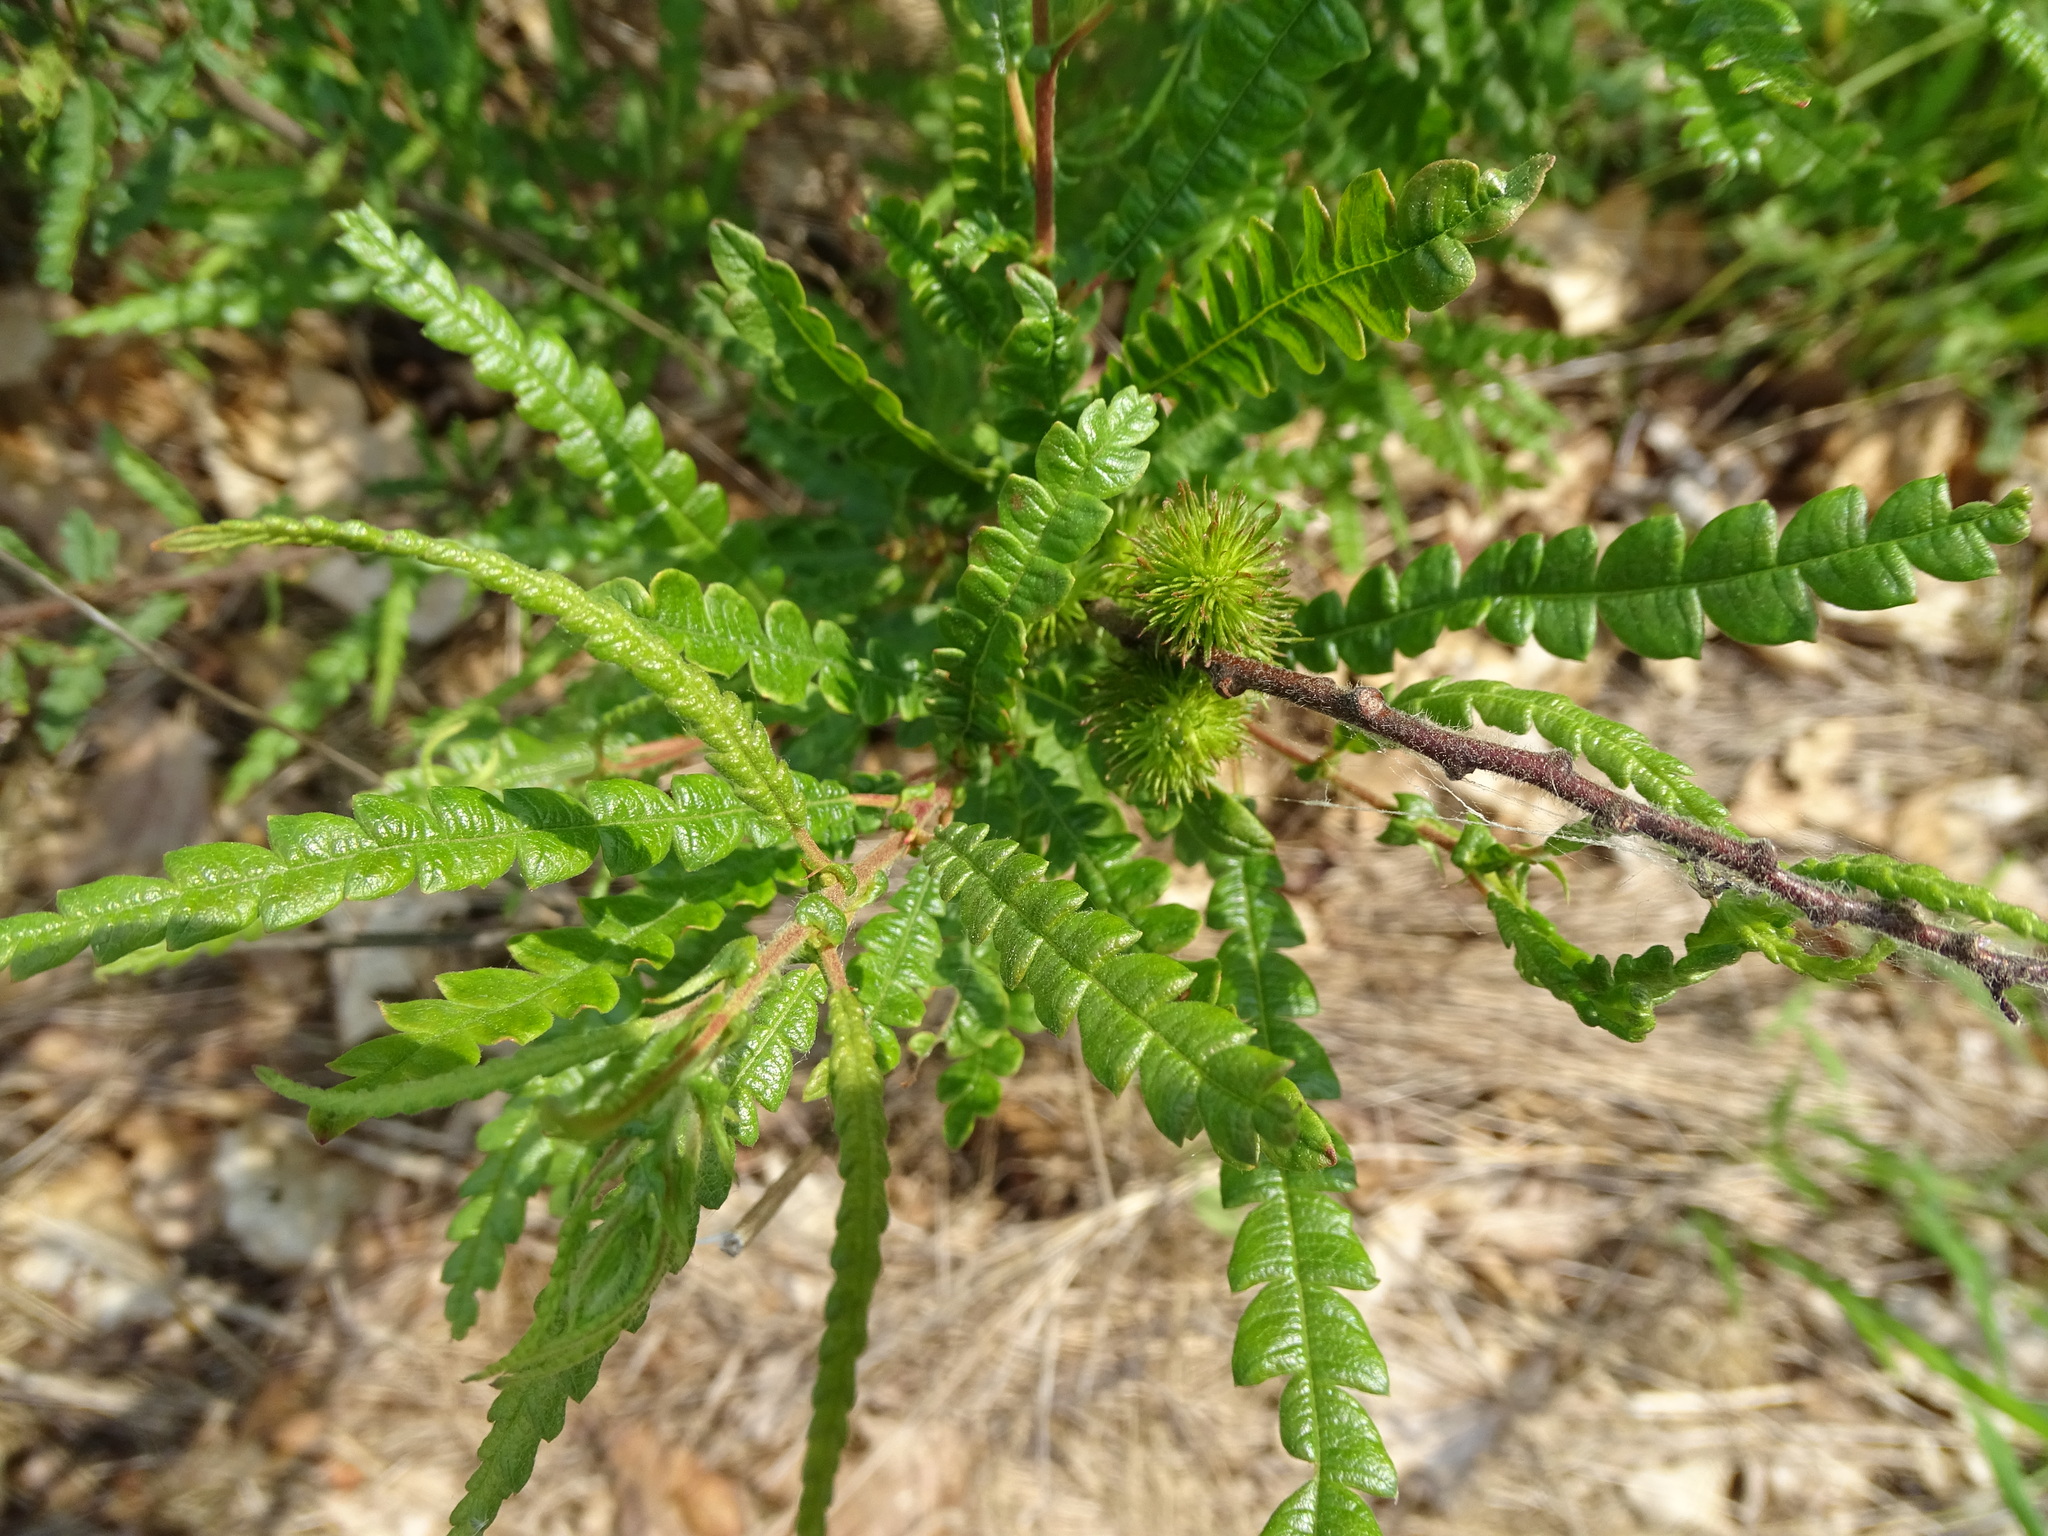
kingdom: Plantae
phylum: Tracheophyta
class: Magnoliopsida
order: Fagales
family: Myricaceae
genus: Comptonia
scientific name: Comptonia peregrina
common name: Sweet-fern
